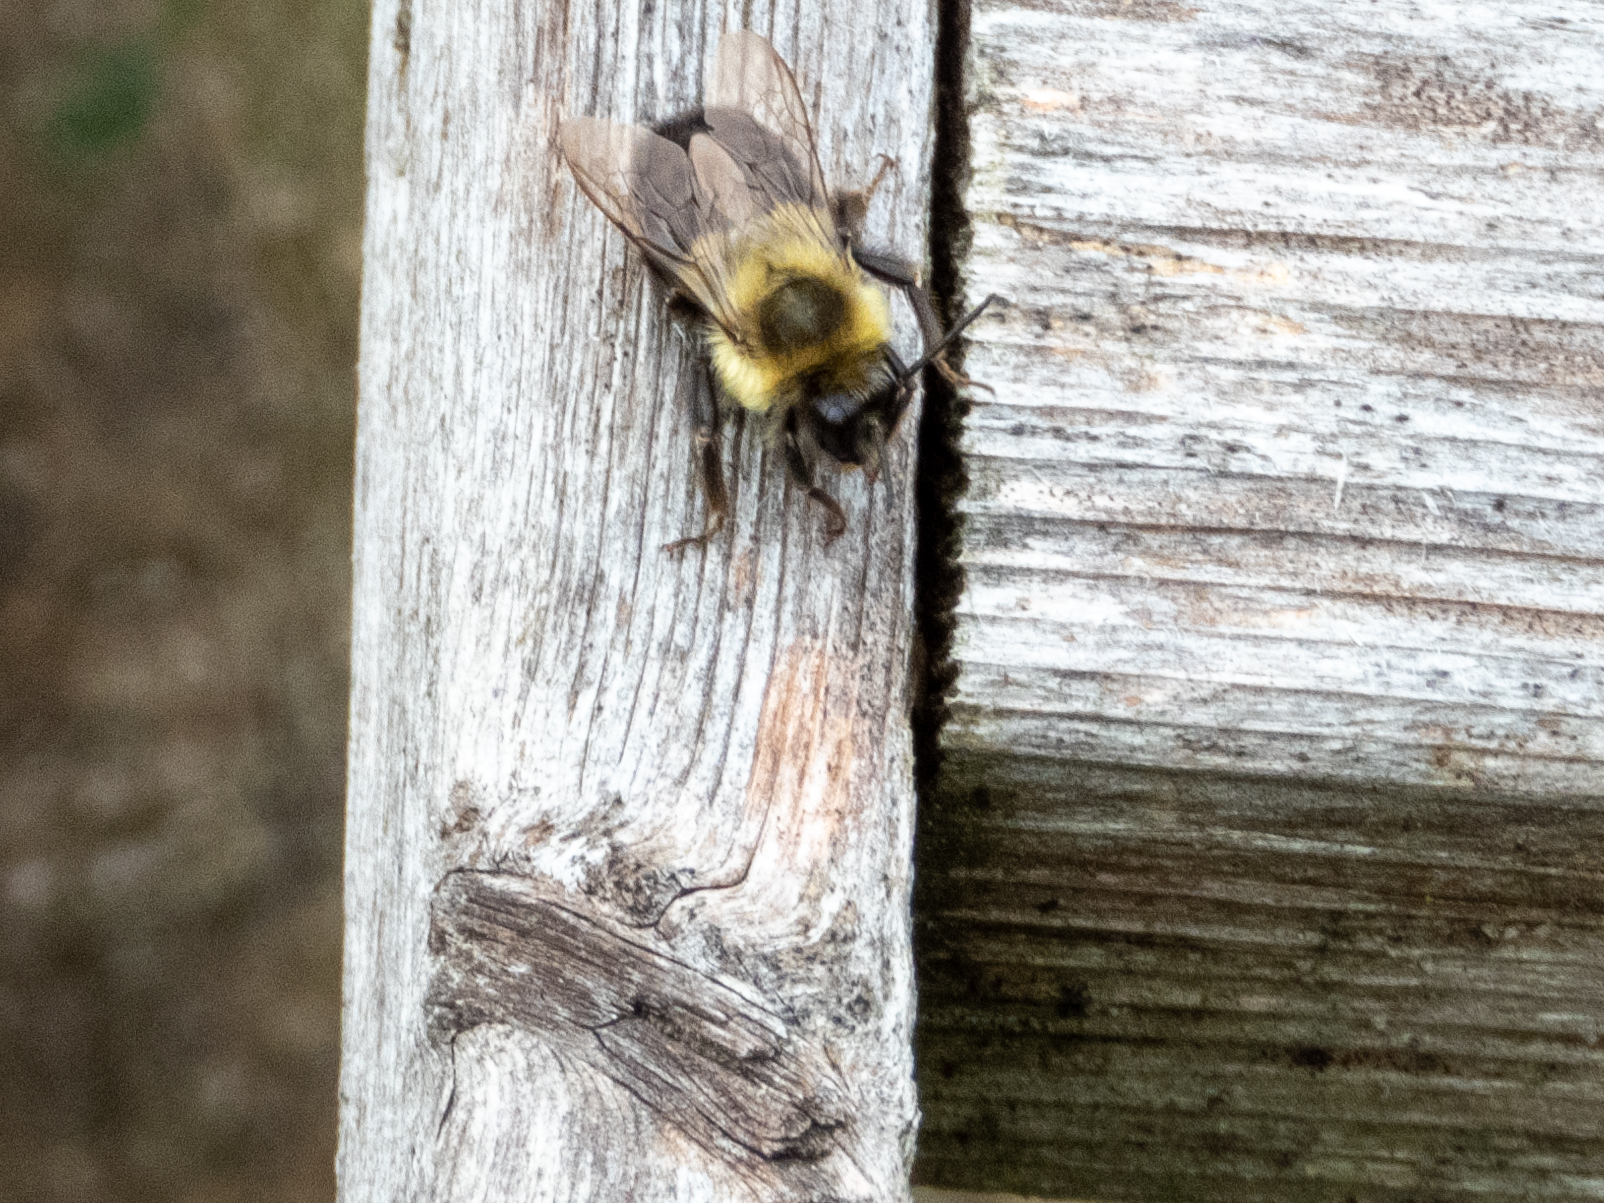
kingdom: Animalia
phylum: Arthropoda
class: Insecta
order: Hymenoptera
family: Apidae
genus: Bombus
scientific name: Bombus impatiens
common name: Common eastern bumble bee
